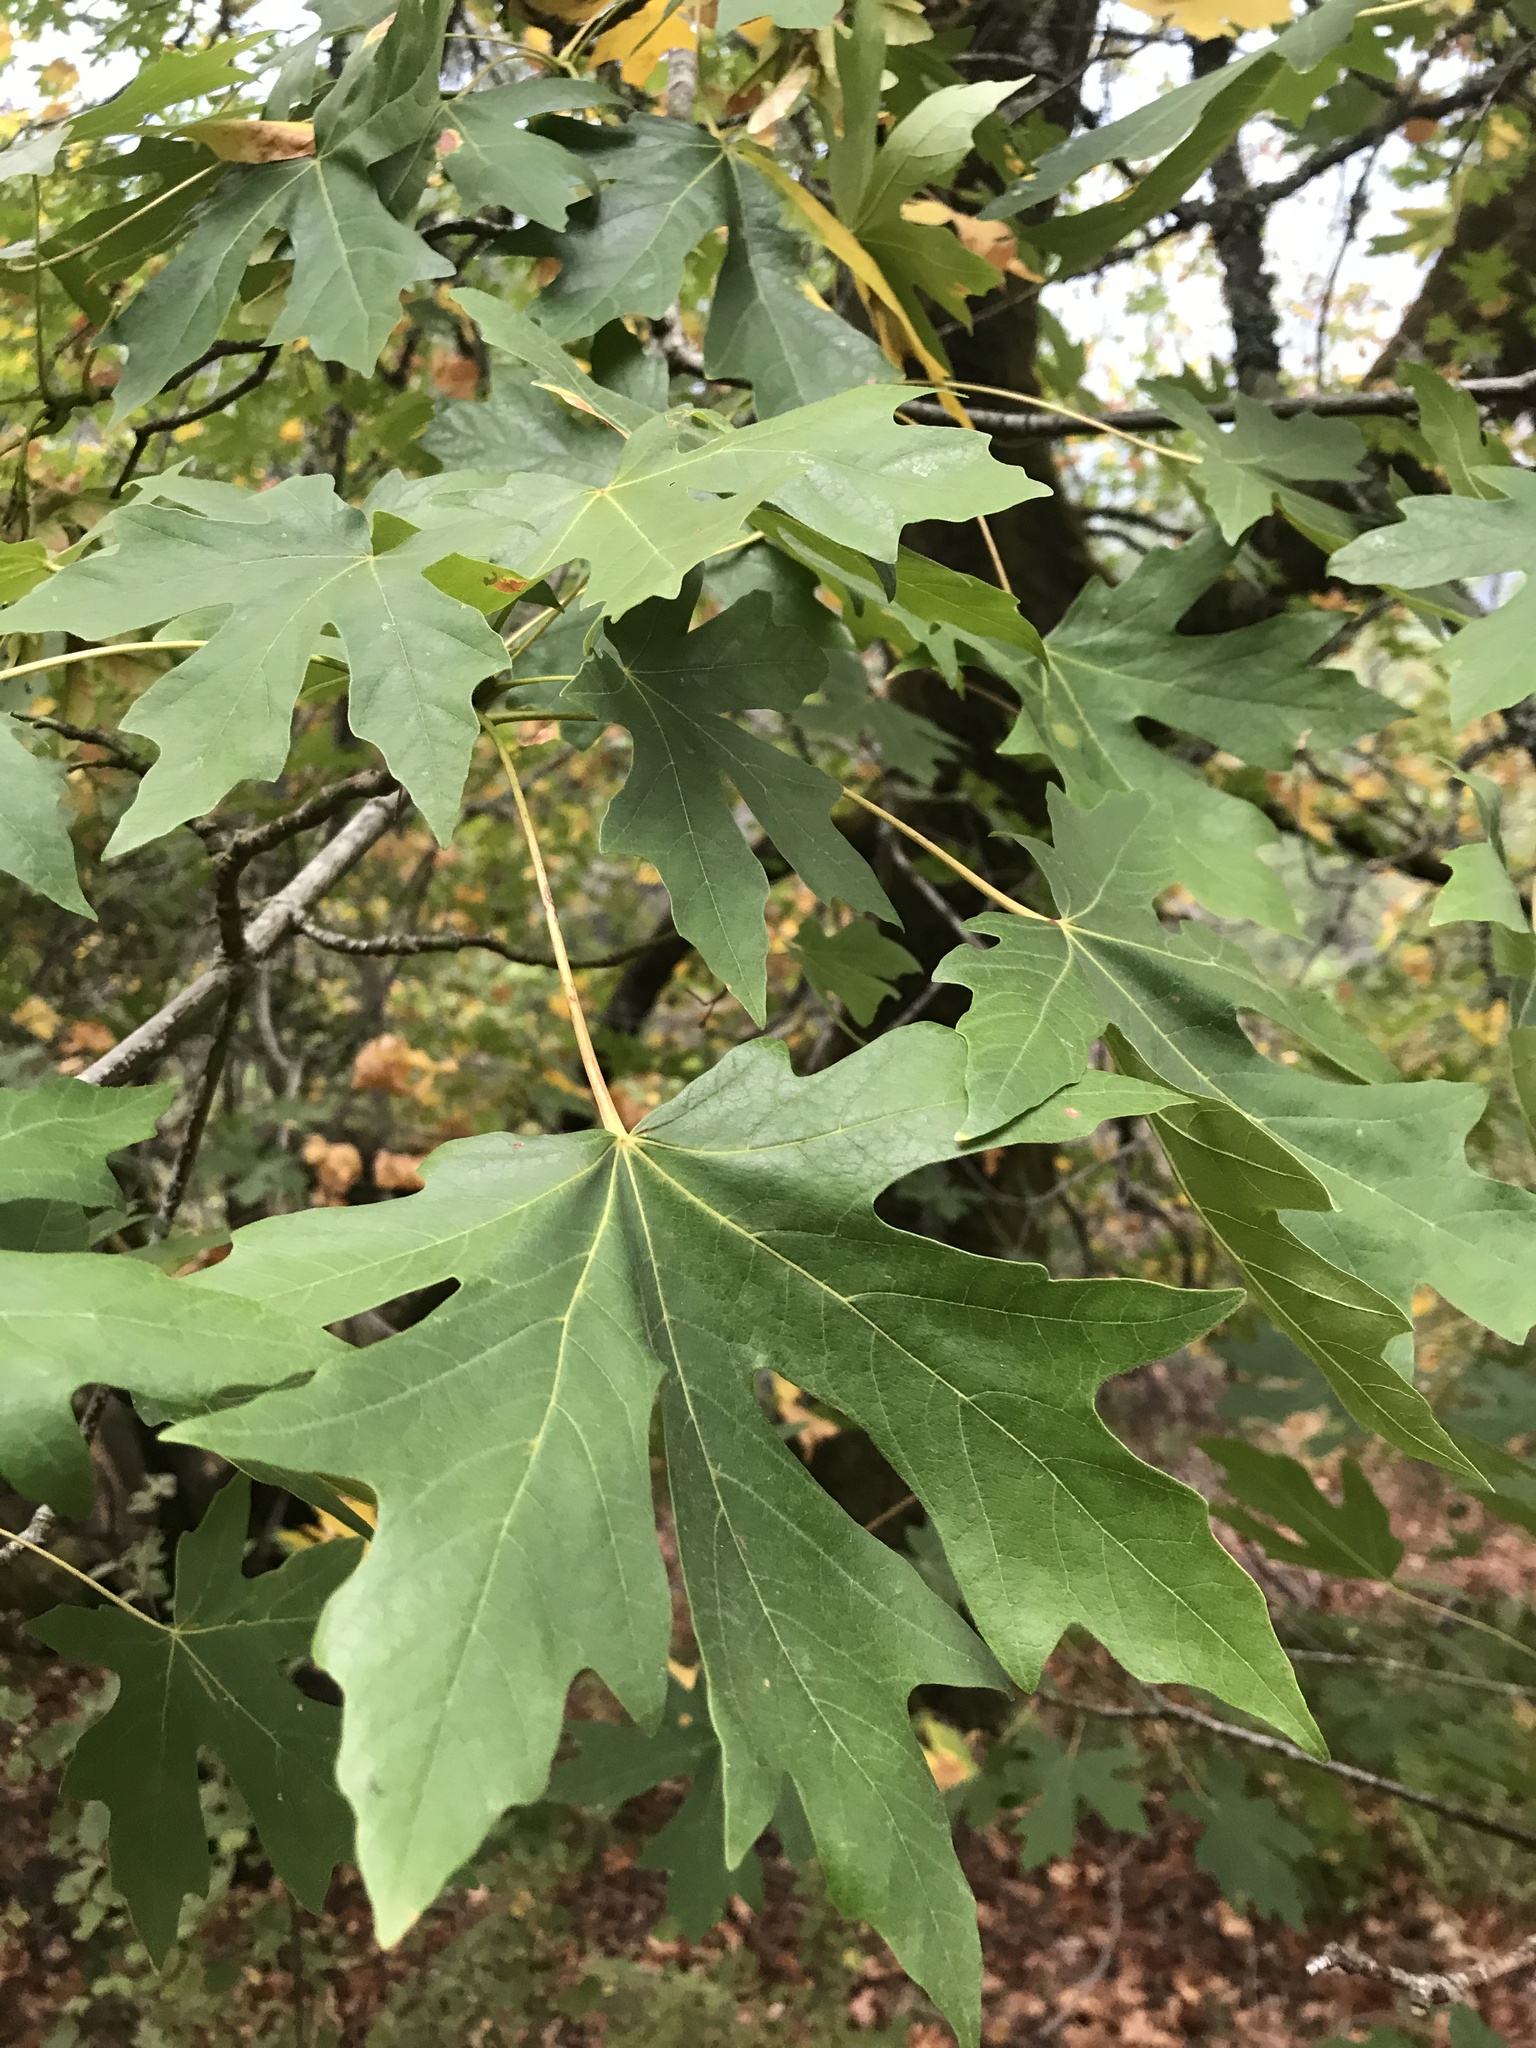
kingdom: Plantae
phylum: Tracheophyta
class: Magnoliopsida
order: Sapindales
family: Sapindaceae
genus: Acer
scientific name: Acer macrophyllum
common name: Oregon maple
